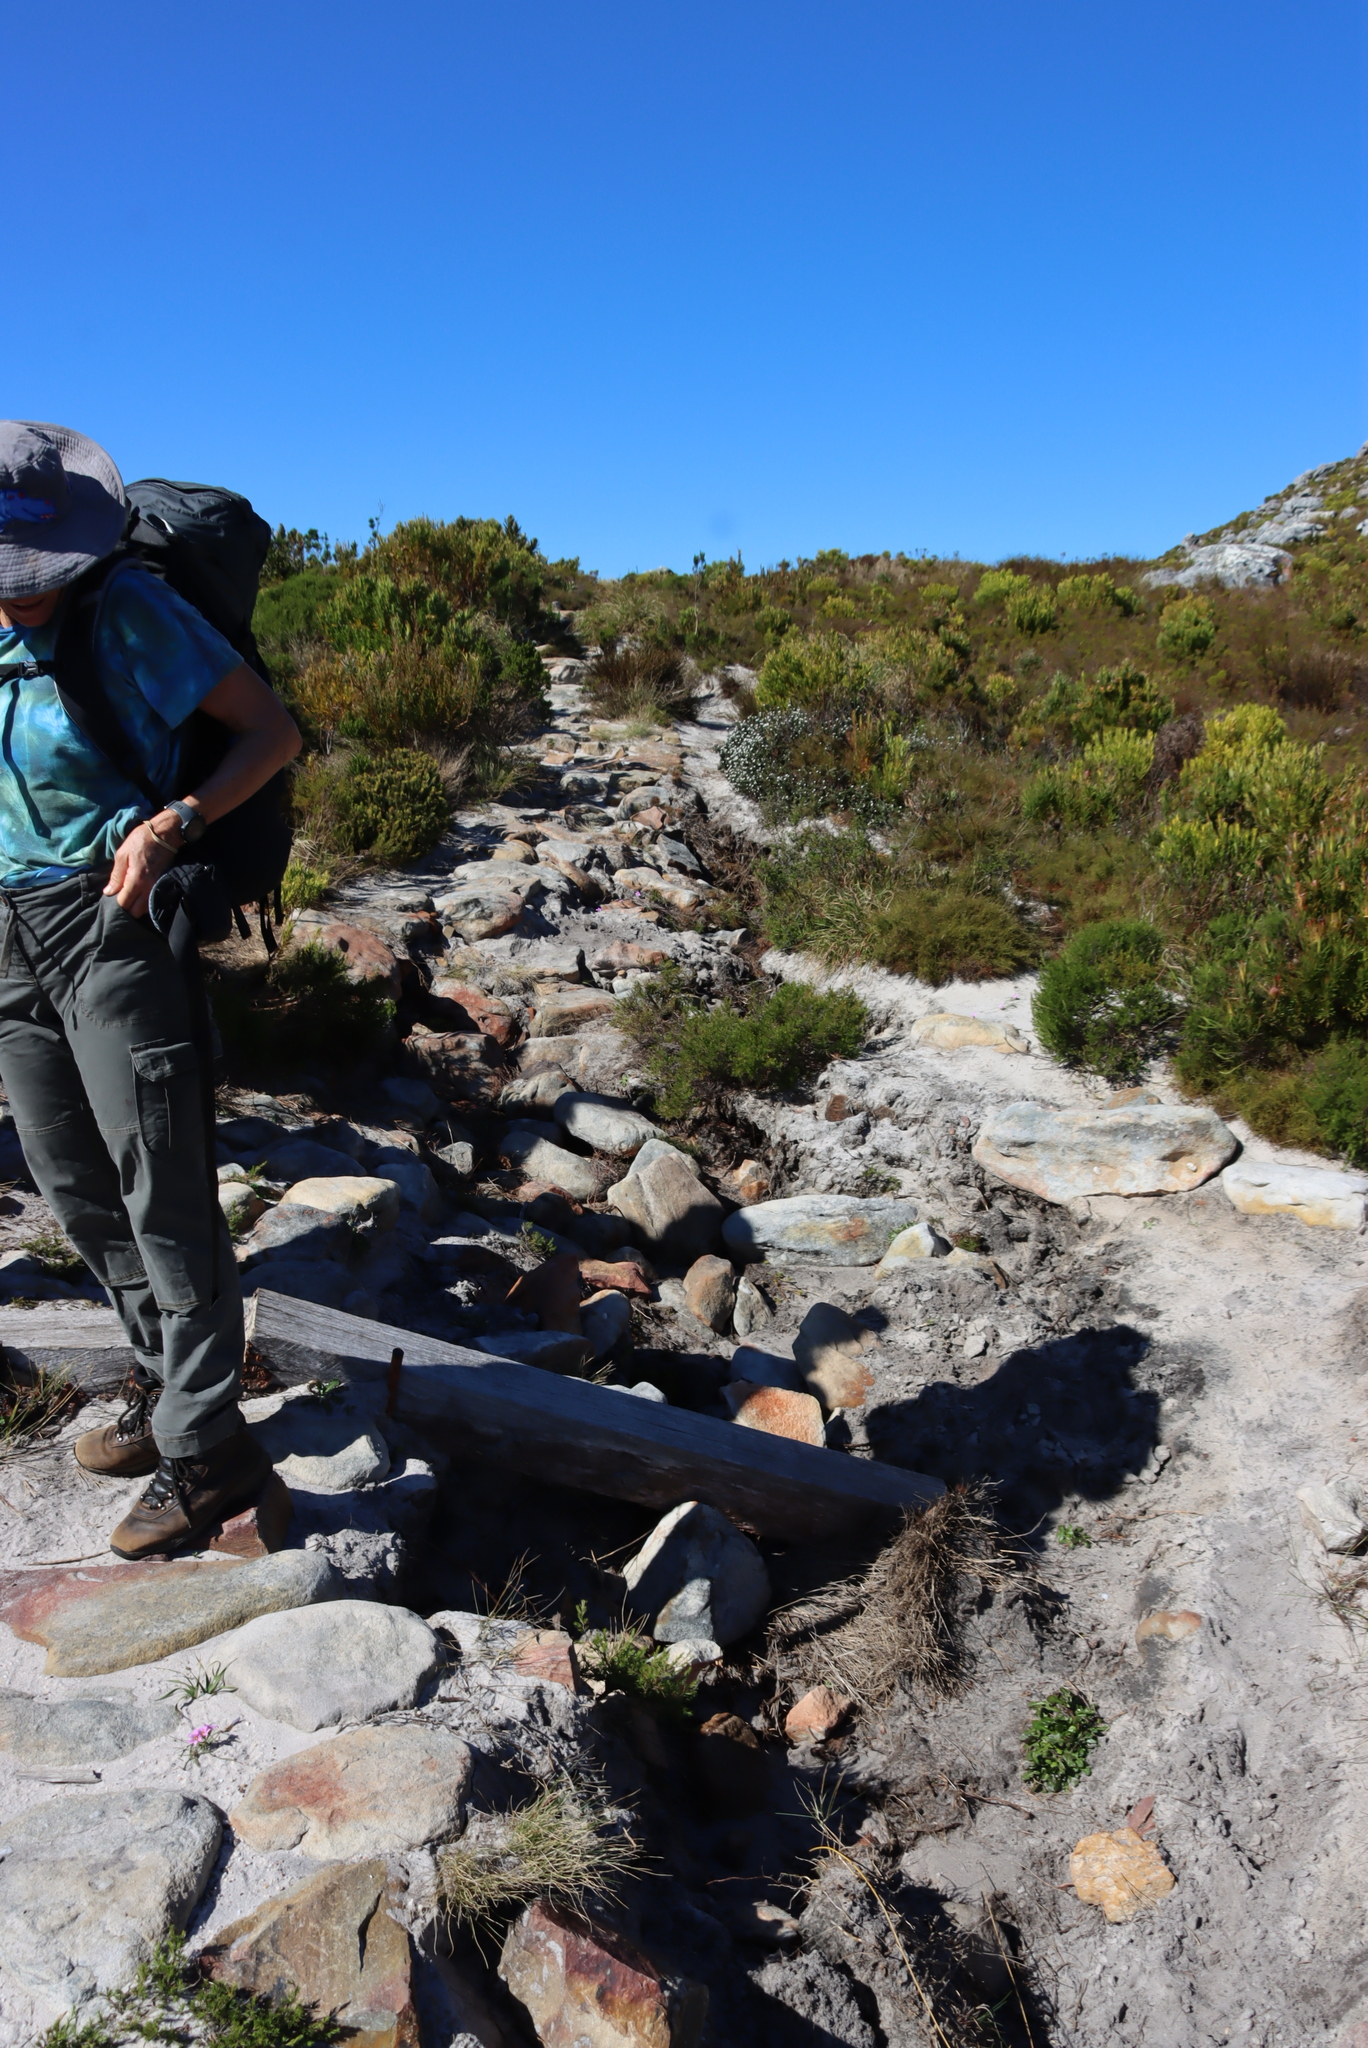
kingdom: Plantae
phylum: Tracheophyta
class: Magnoliopsida
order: Proteales
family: Proteaceae
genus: Leucadendron
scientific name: Leucadendron xanthoconus
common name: Sickle-leaf conebush
